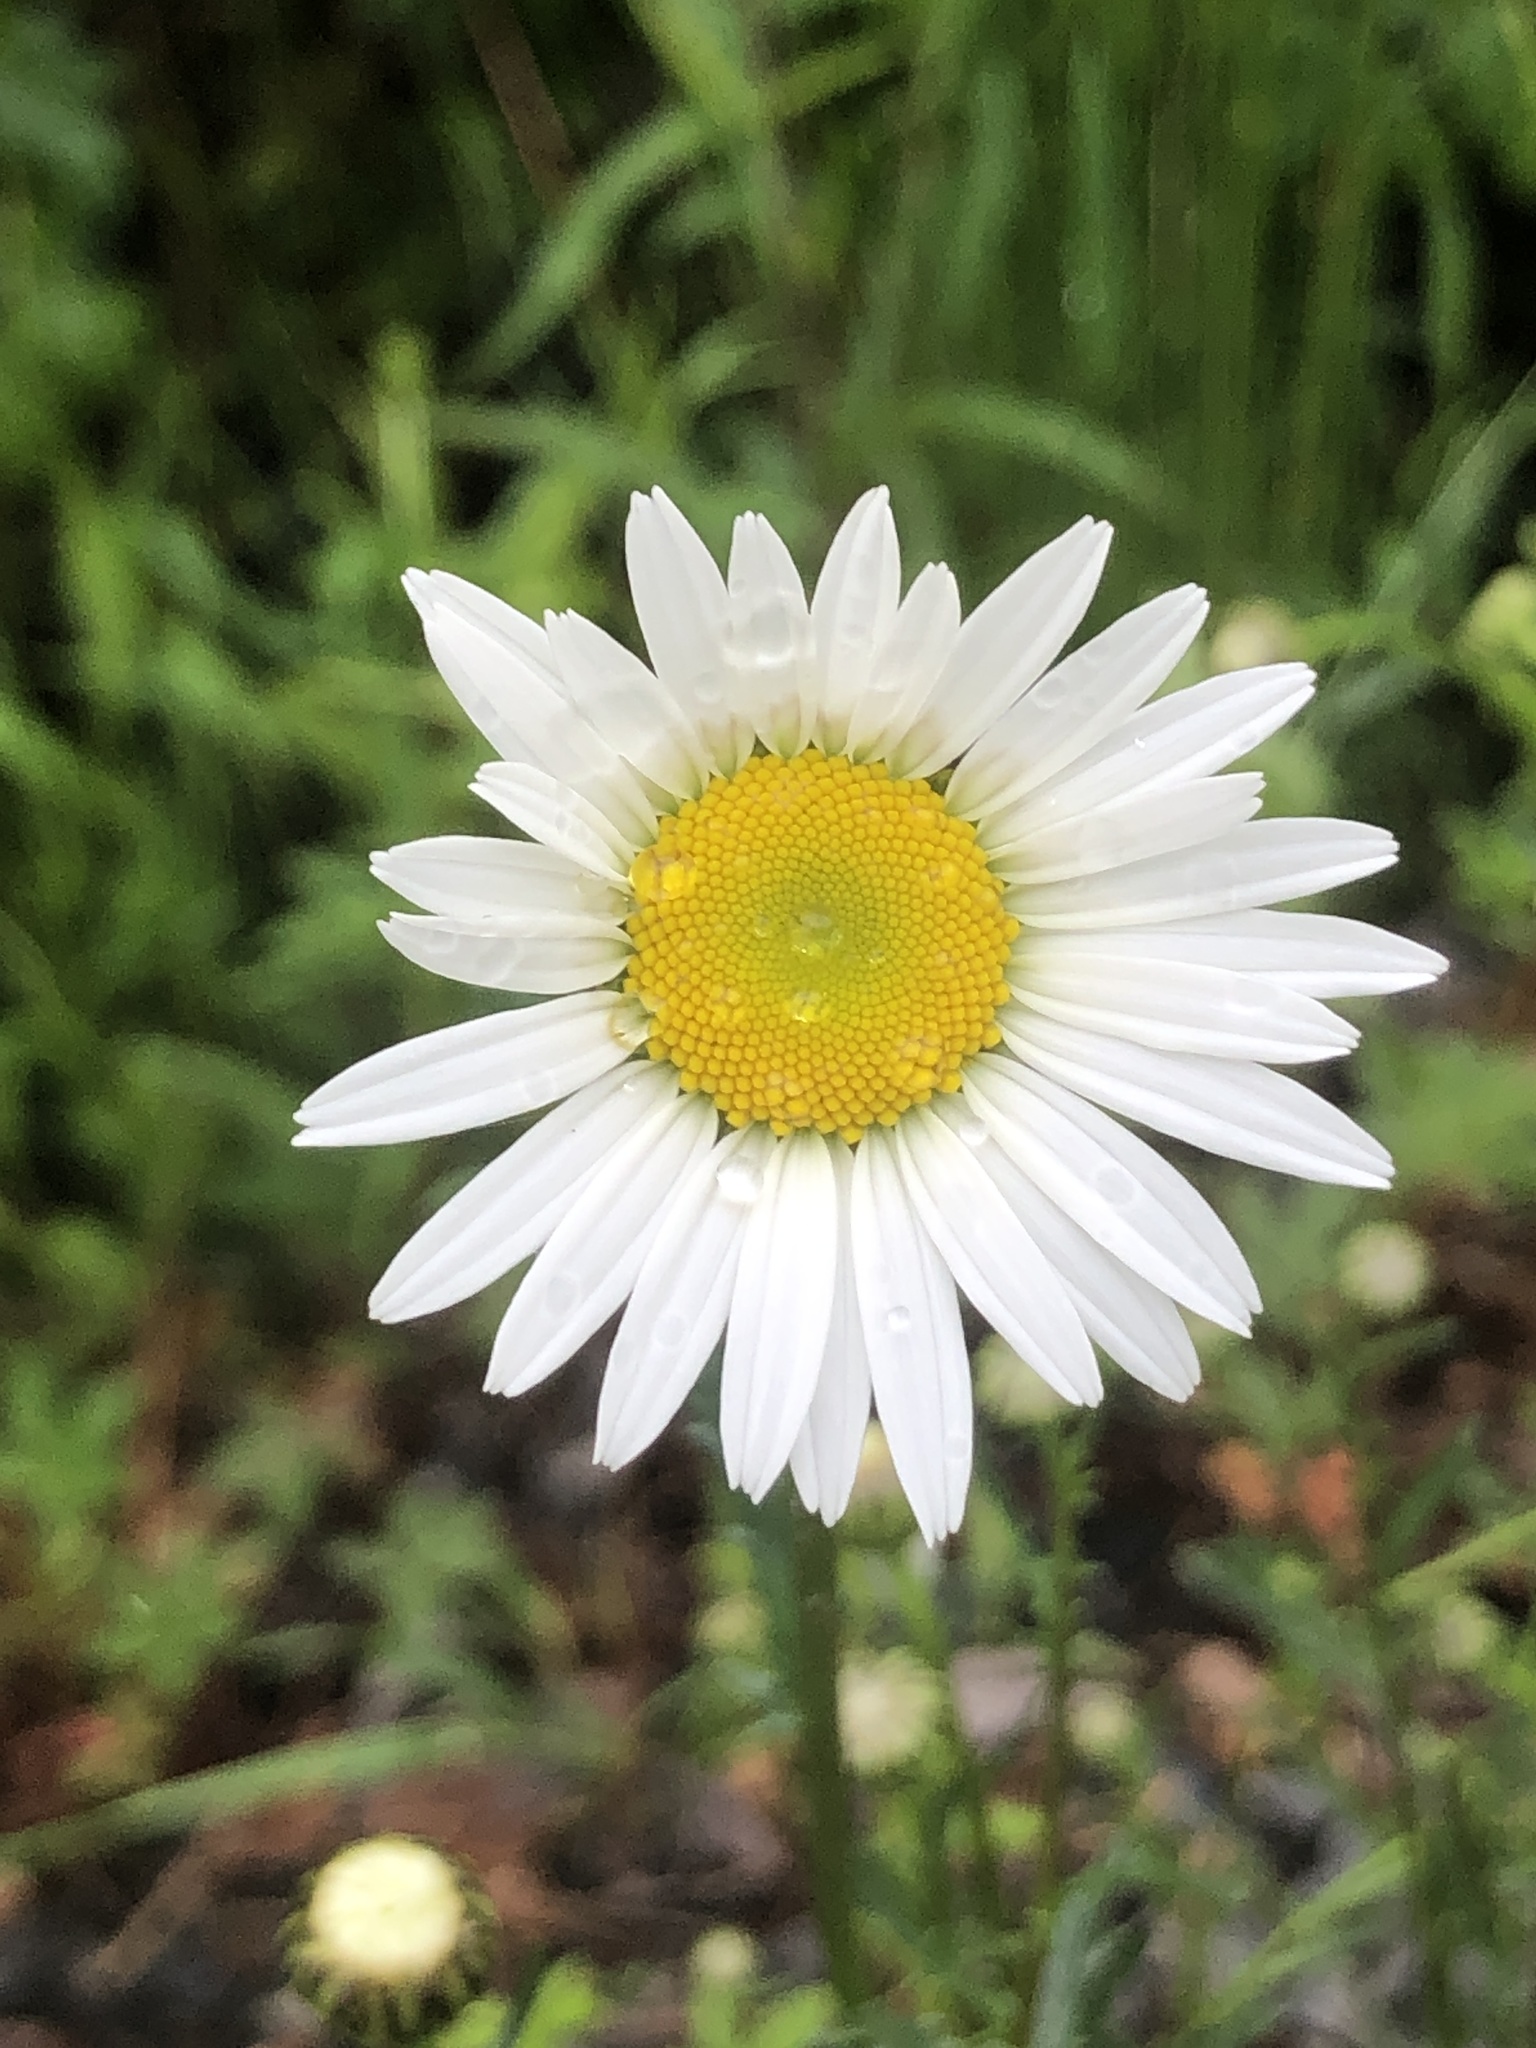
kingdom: Plantae
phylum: Tracheophyta
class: Magnoliopsida
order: Asterales
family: Asteraceae
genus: Leucanthemum
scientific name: Leucanthemum vulgare
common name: Oxeye daisy
